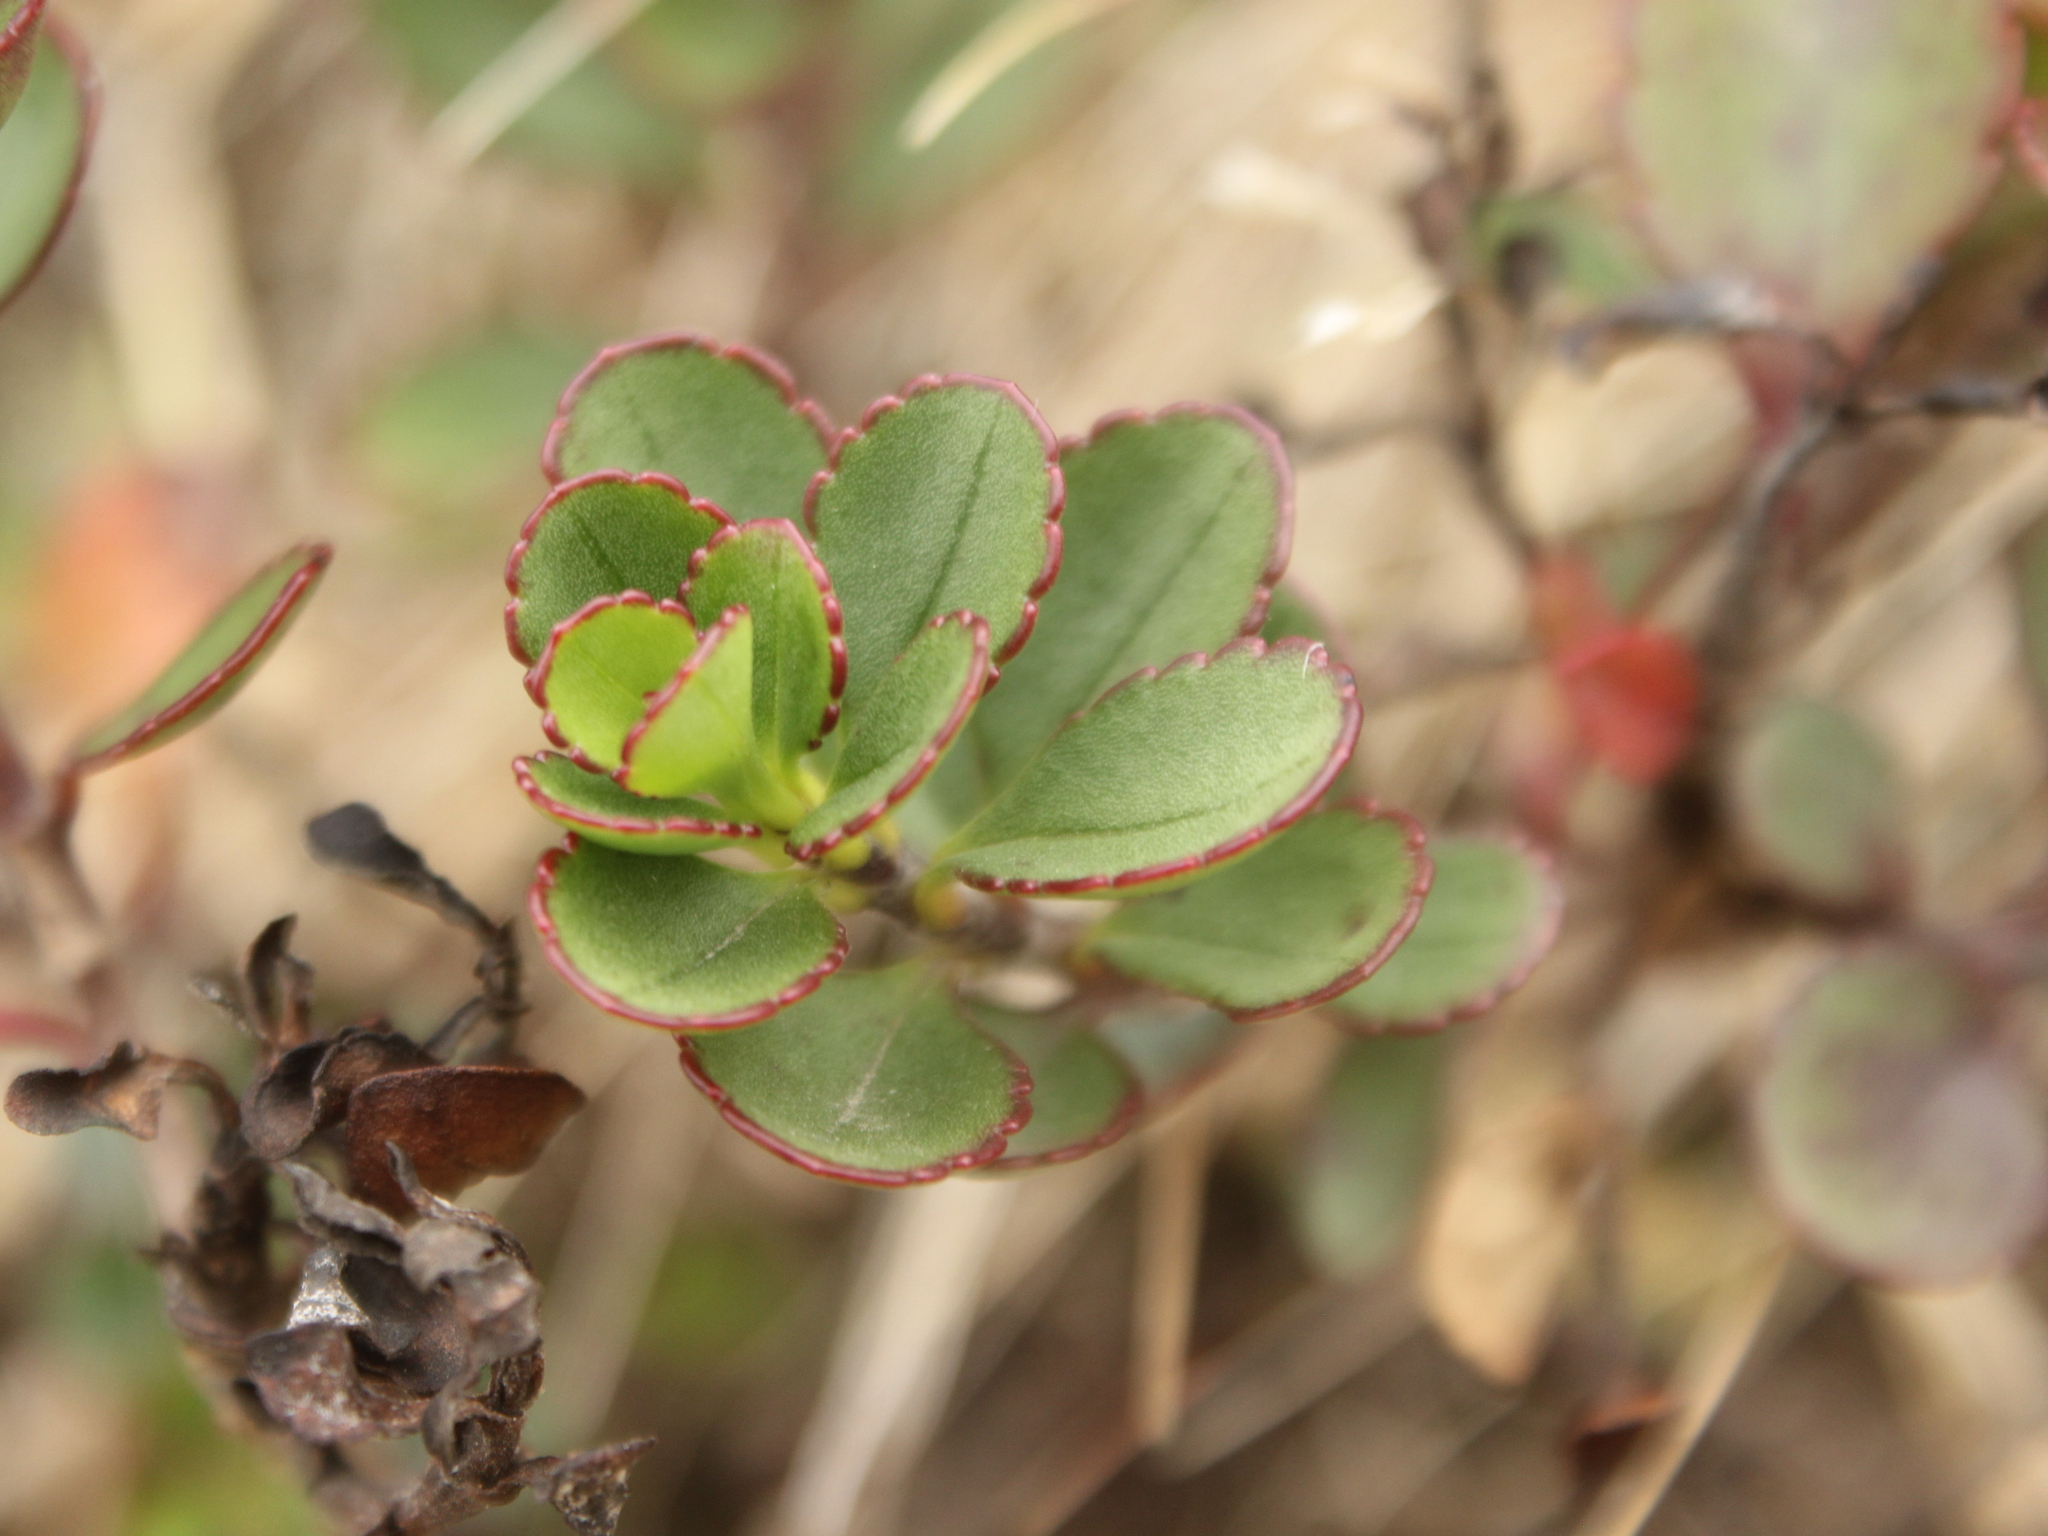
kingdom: Plantae
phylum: Tracheophyta
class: Magnoliopsida
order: Lamiales
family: Plantaginaceae
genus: Veronica
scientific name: Veronica lavaudiana
